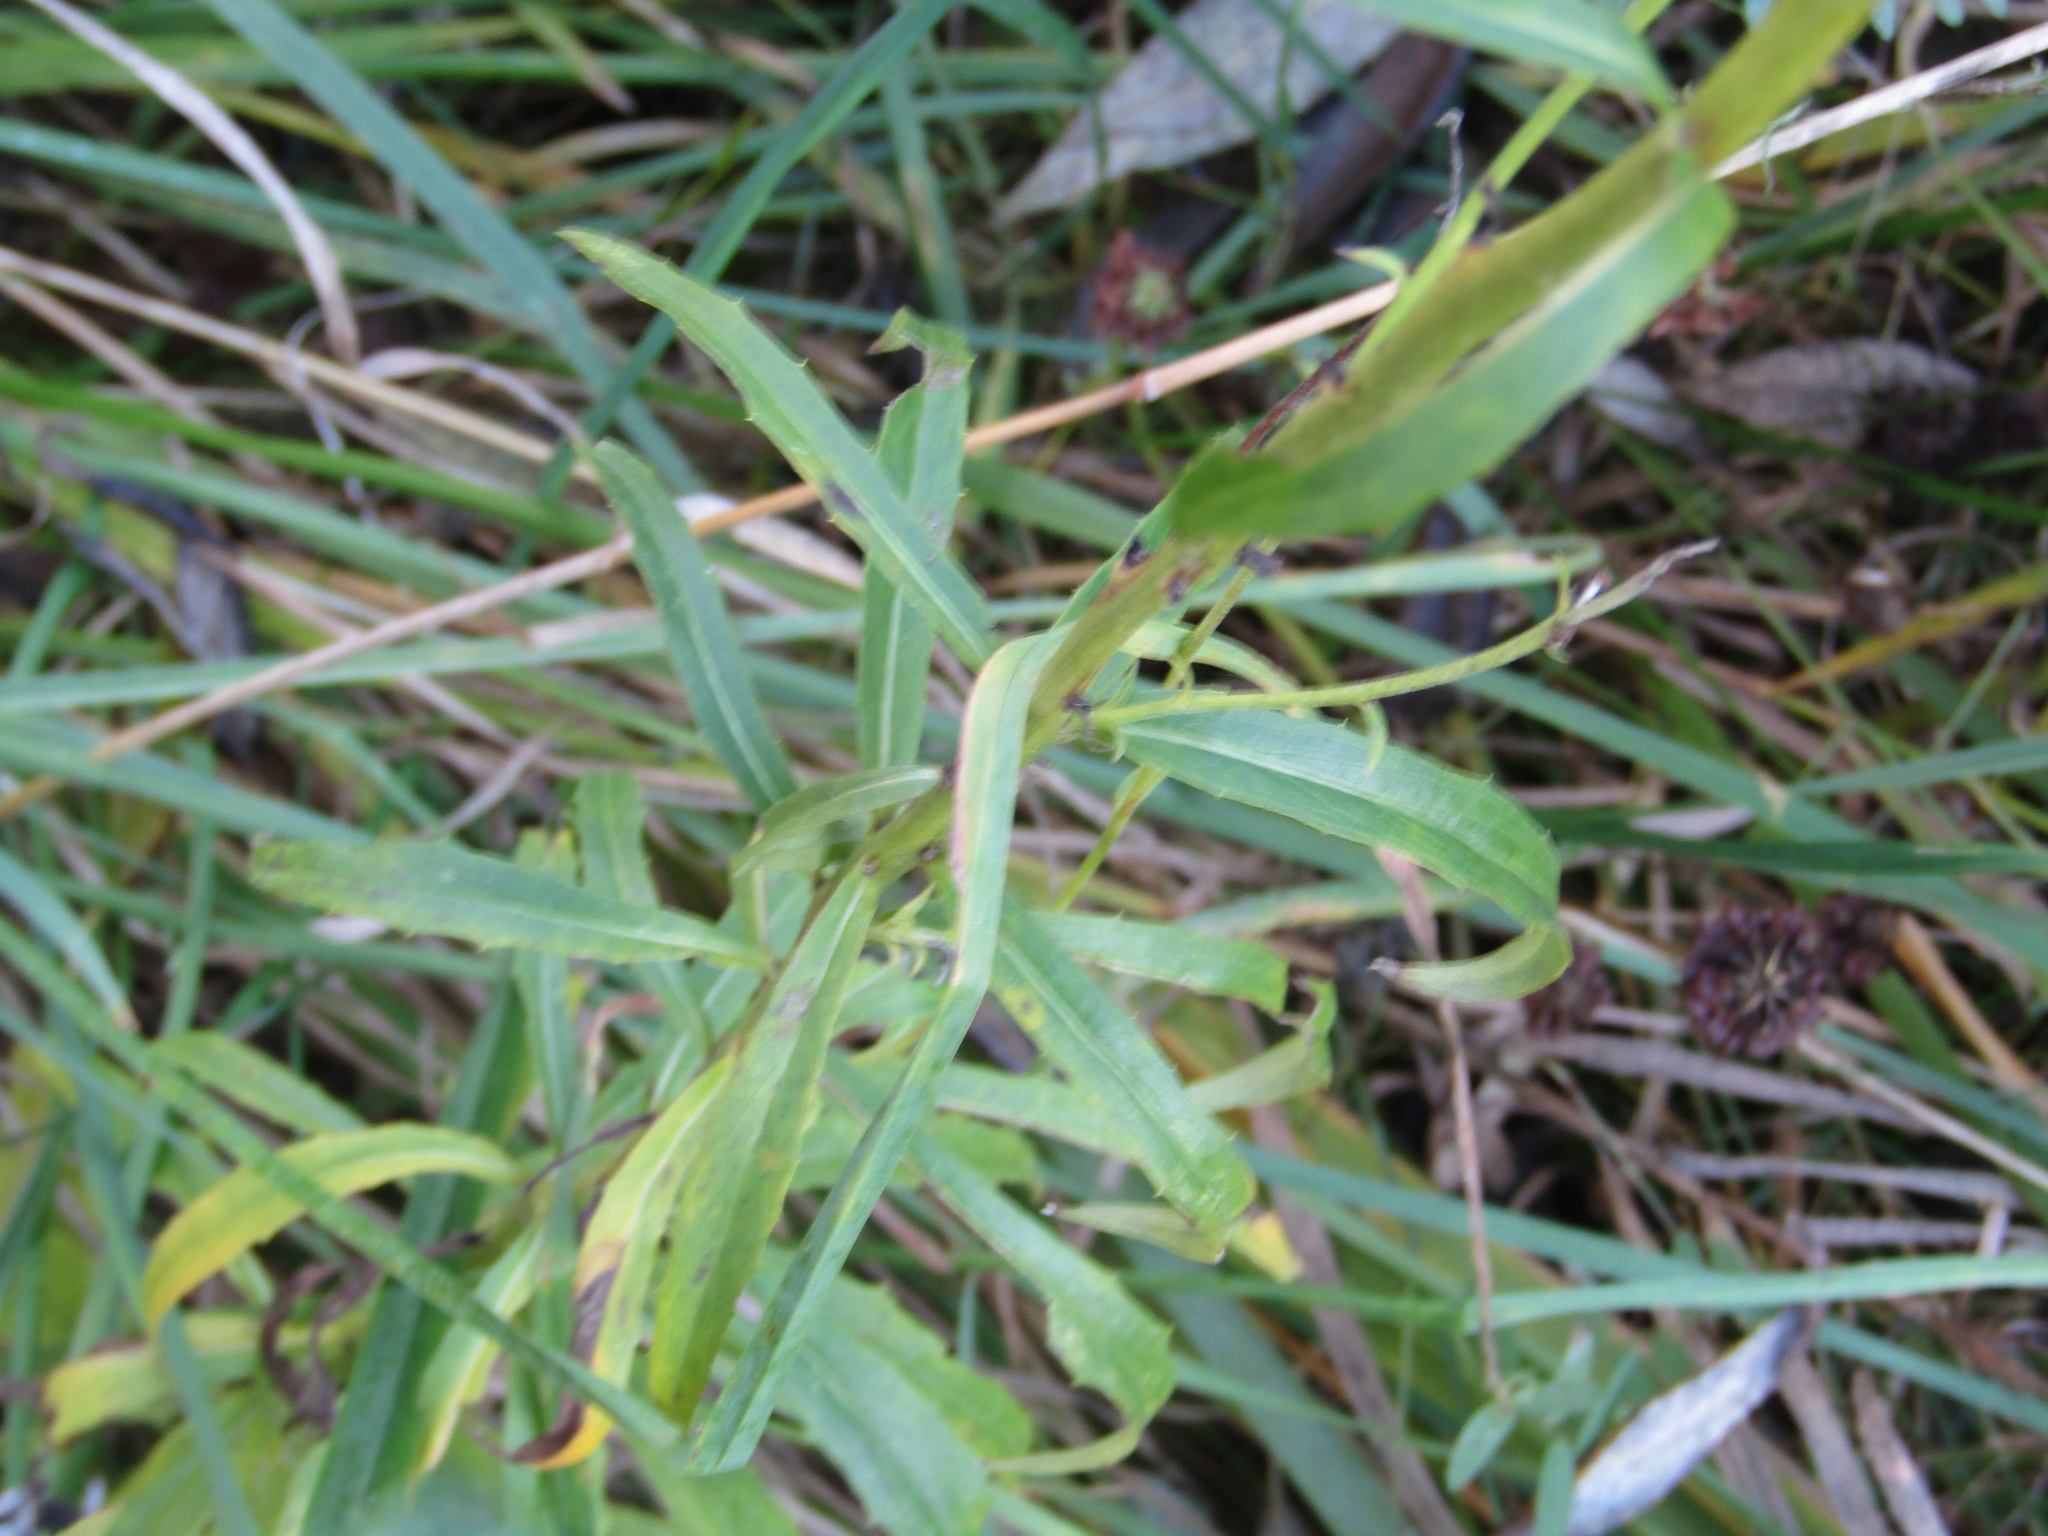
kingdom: Plantae
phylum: Tracheophyta
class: Magnoliopsida
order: Asterales
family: Asteraceae
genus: Hieracium
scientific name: Hieracium umbellatum
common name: Northern hawkweed
